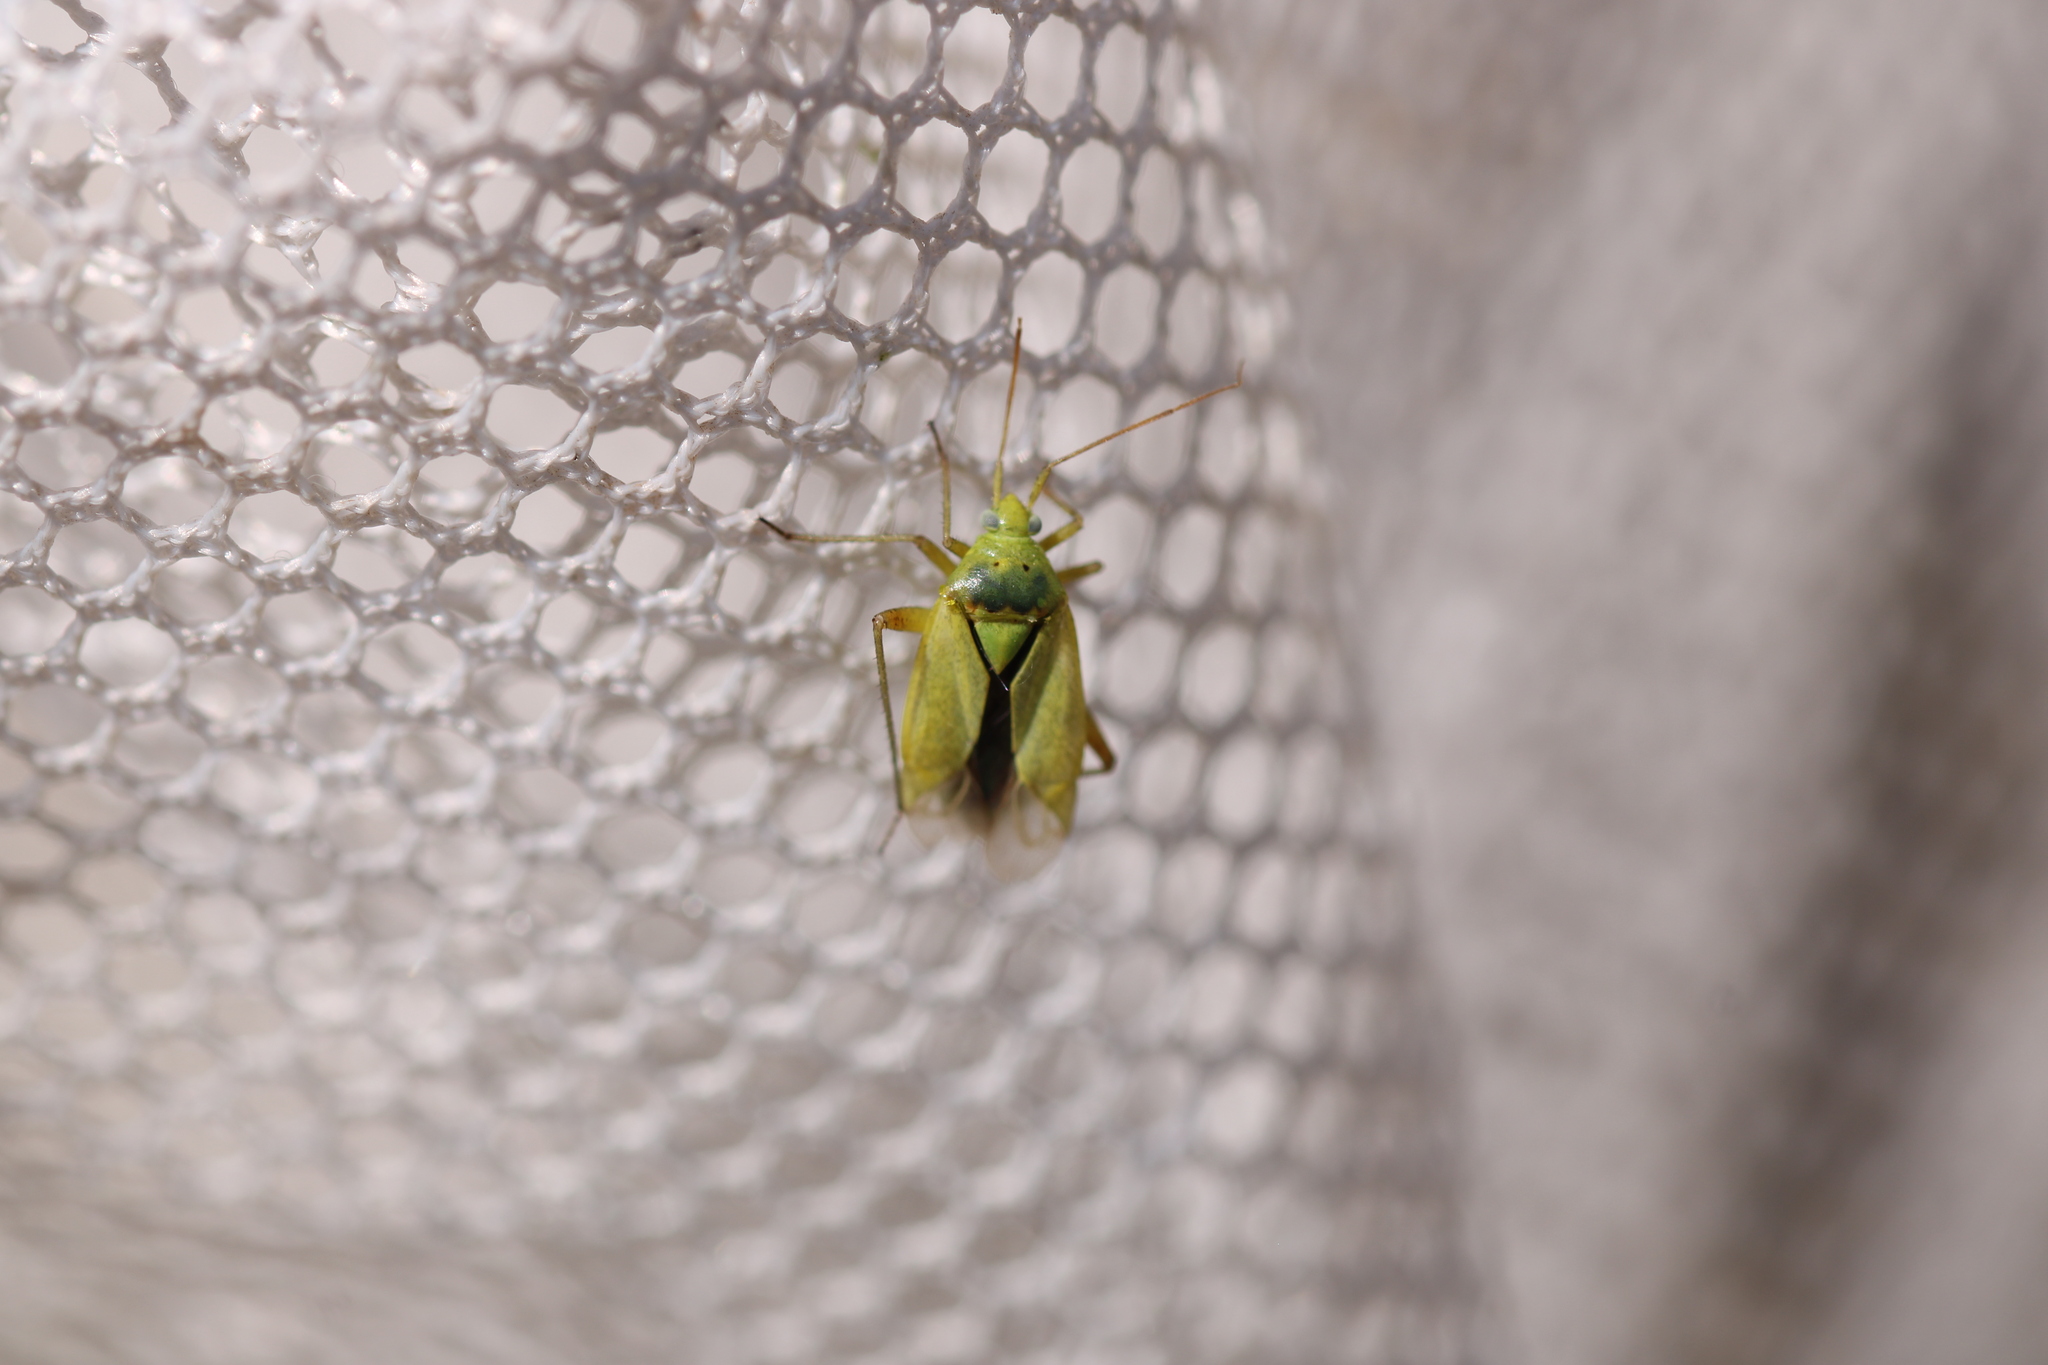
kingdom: Animalia
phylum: Arthropoda
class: Insecta
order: Hemiptera
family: Miridae
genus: Closterotomus
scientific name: Closterotomus norvegicus
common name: Plant bug
